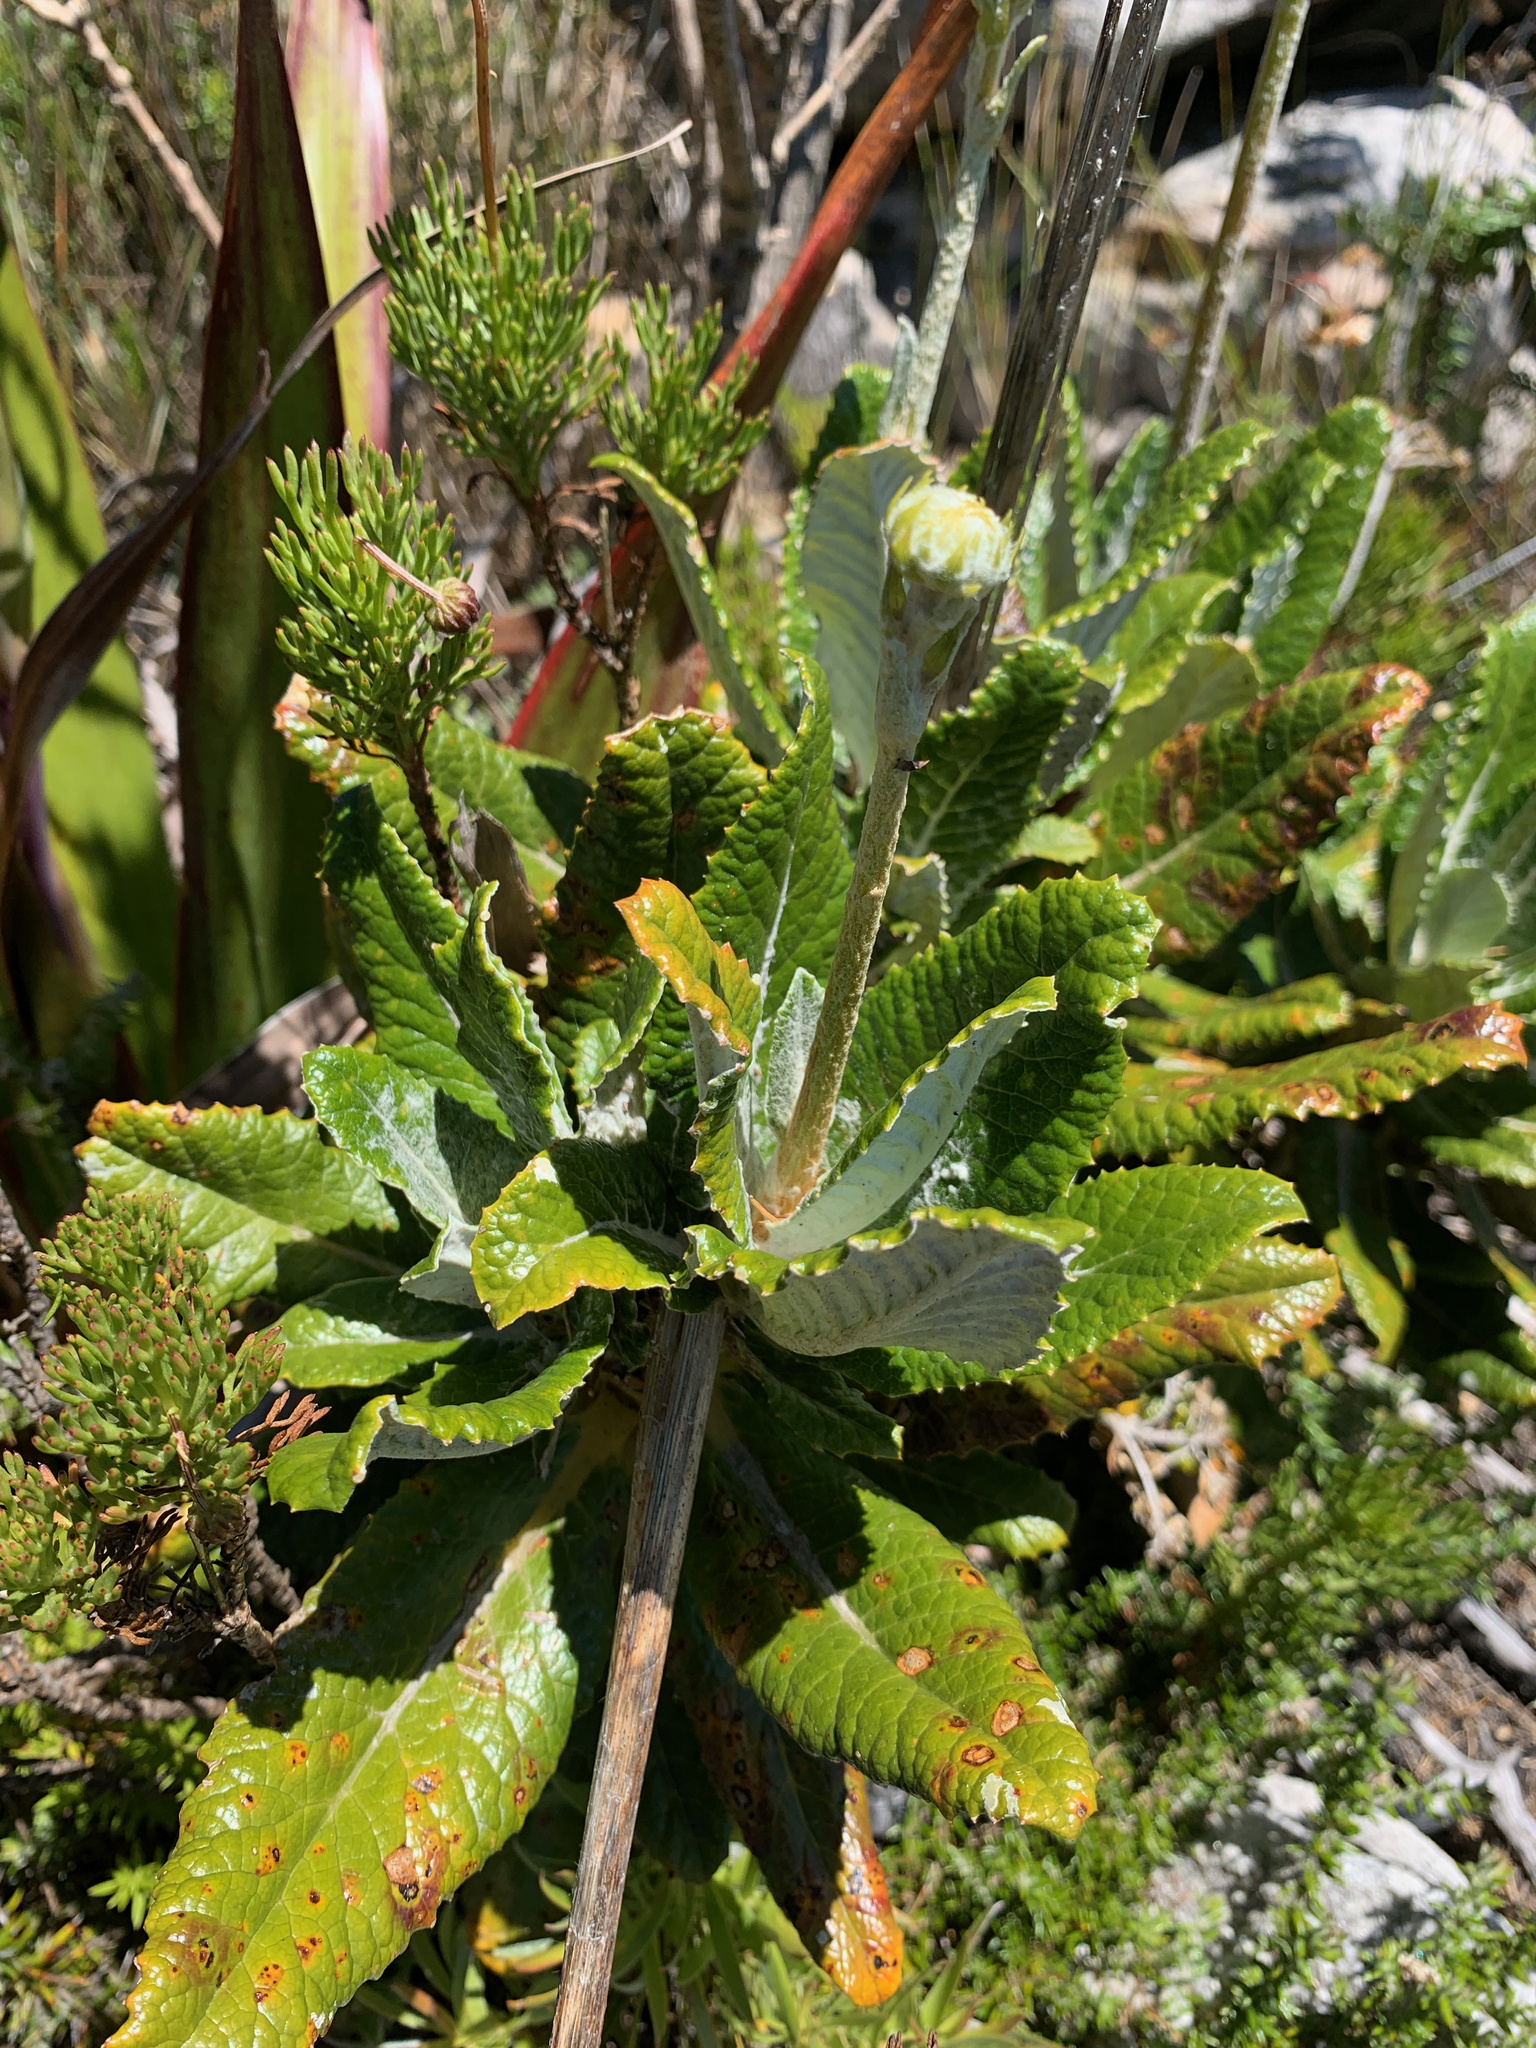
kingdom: Plantae
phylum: Tracheophyta
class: Magnoliopsida
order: Apiales
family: Apiaceae
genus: Hermas
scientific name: Hermas villosa
